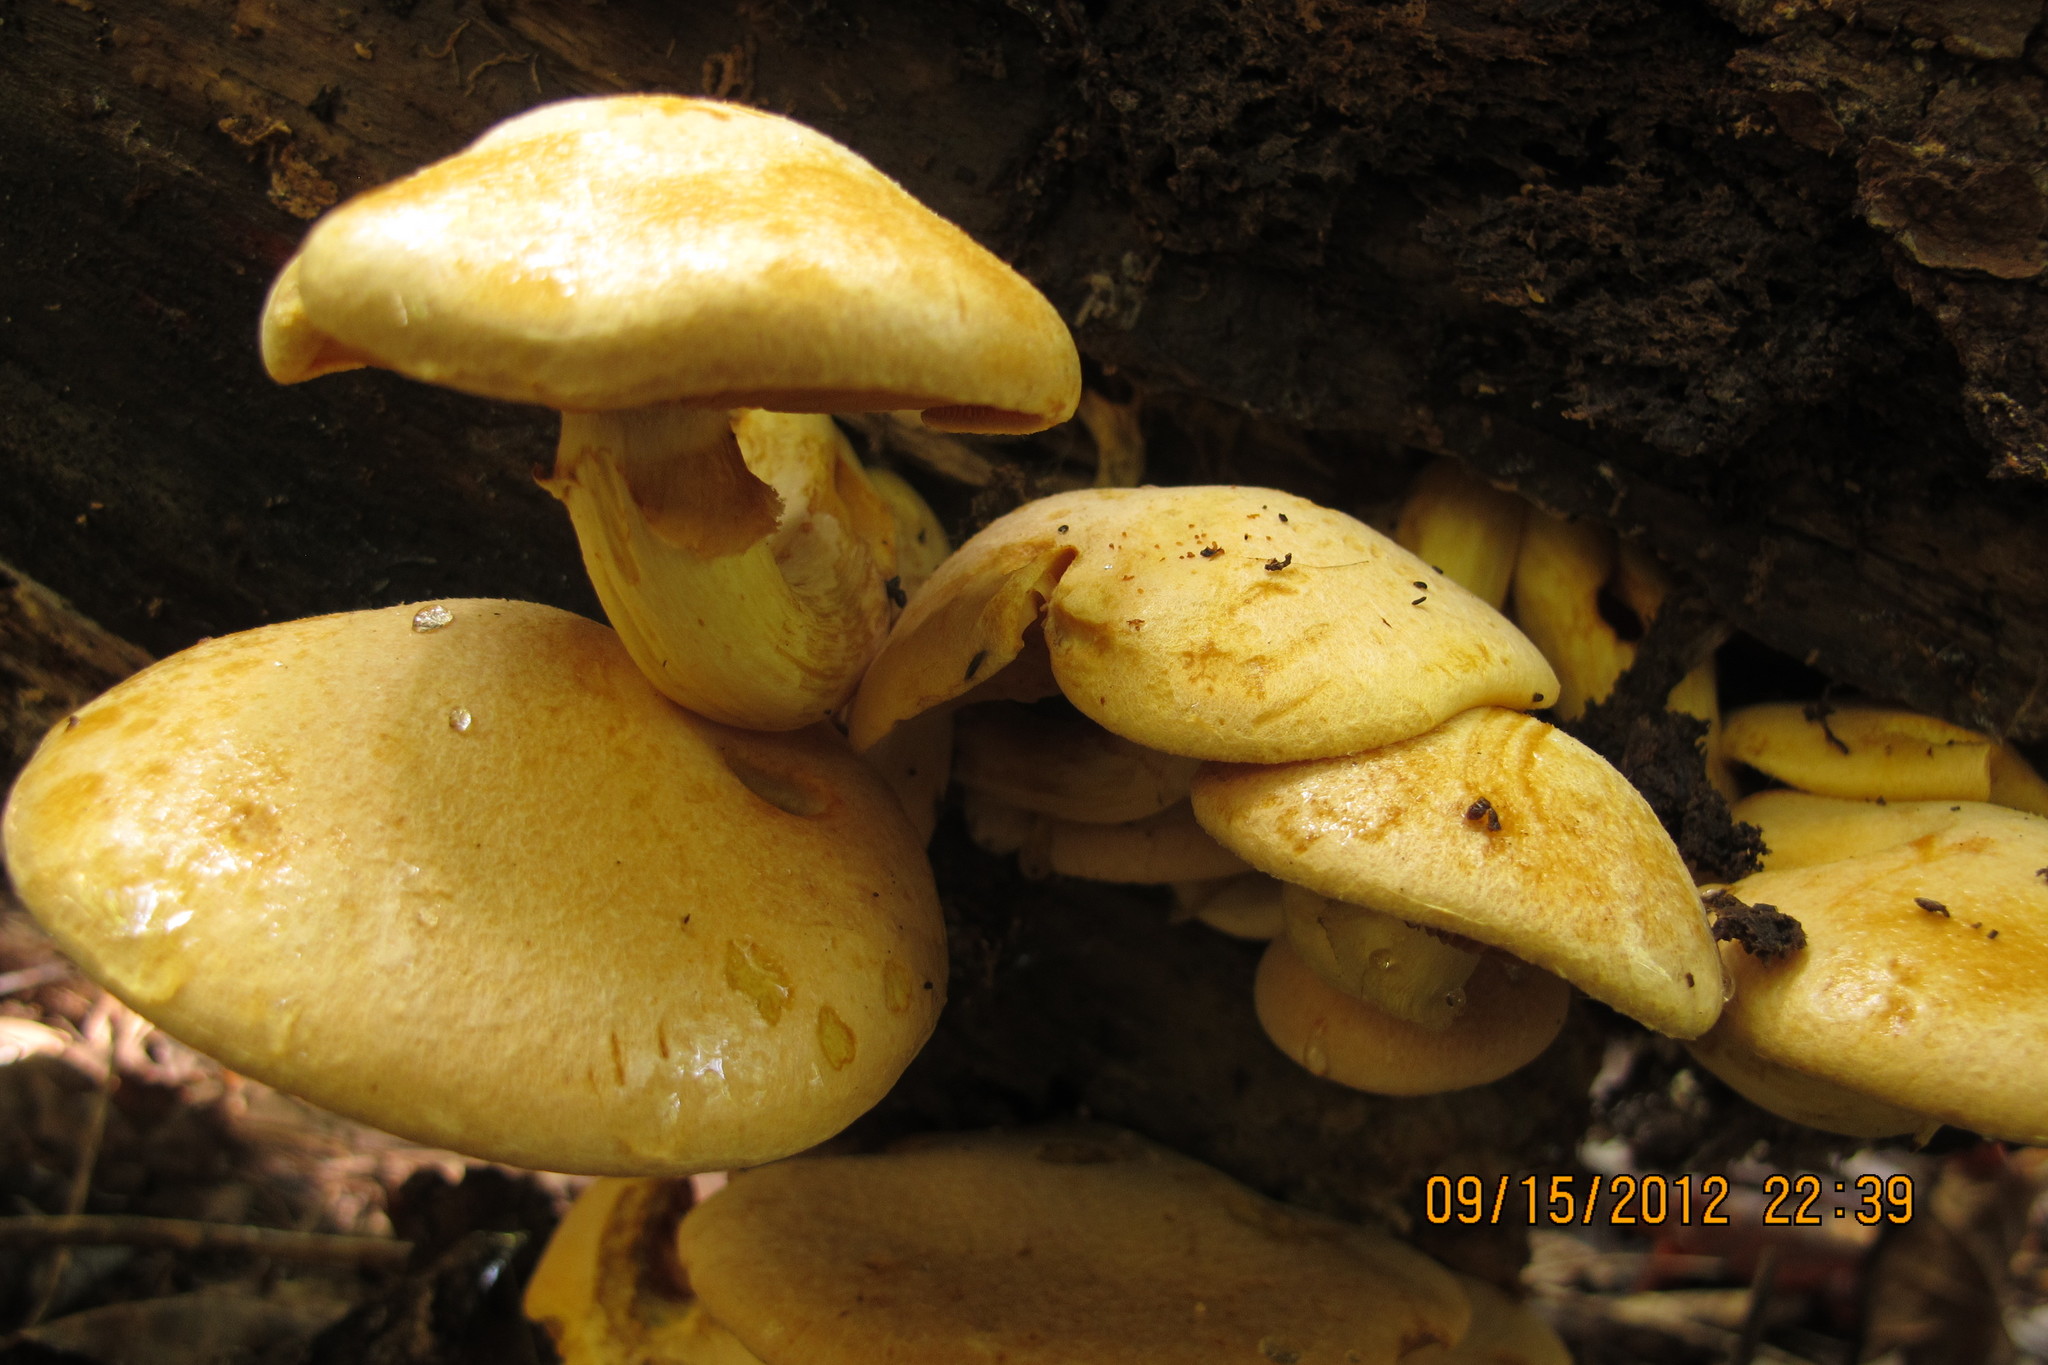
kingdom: Fungi
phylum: Basidiomycota
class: Agaricomycetes
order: Agaricales
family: Hymenogastraceae
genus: Gymnopilus
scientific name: Gymnopilus luteus
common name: Yellow gymnopilus
